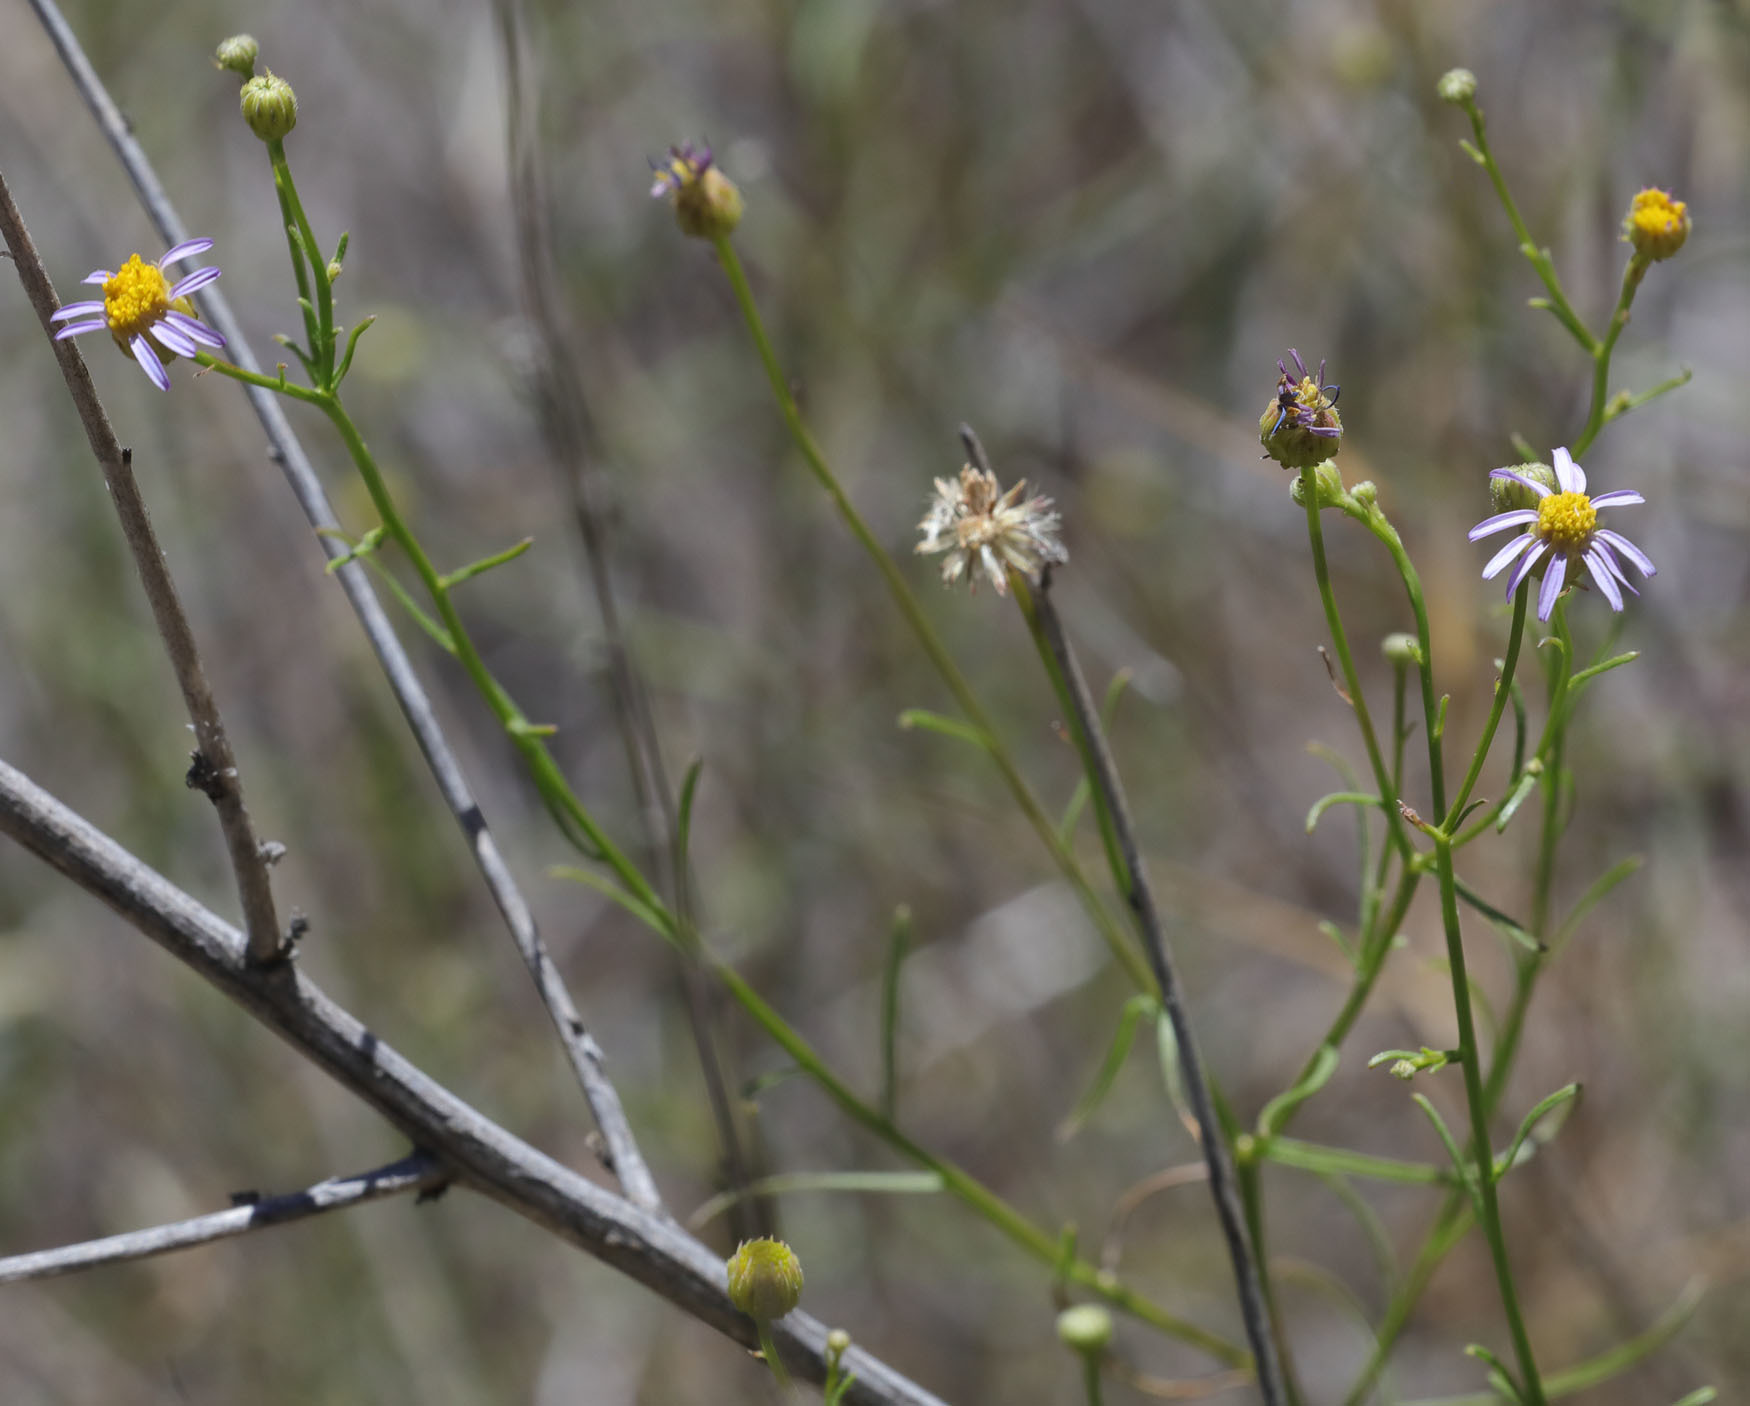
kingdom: Plantae
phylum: Tracheophyta
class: Magnoliopsida
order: Asterales
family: Asteraceae
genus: Erigeron
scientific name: Erigeron foliosus
